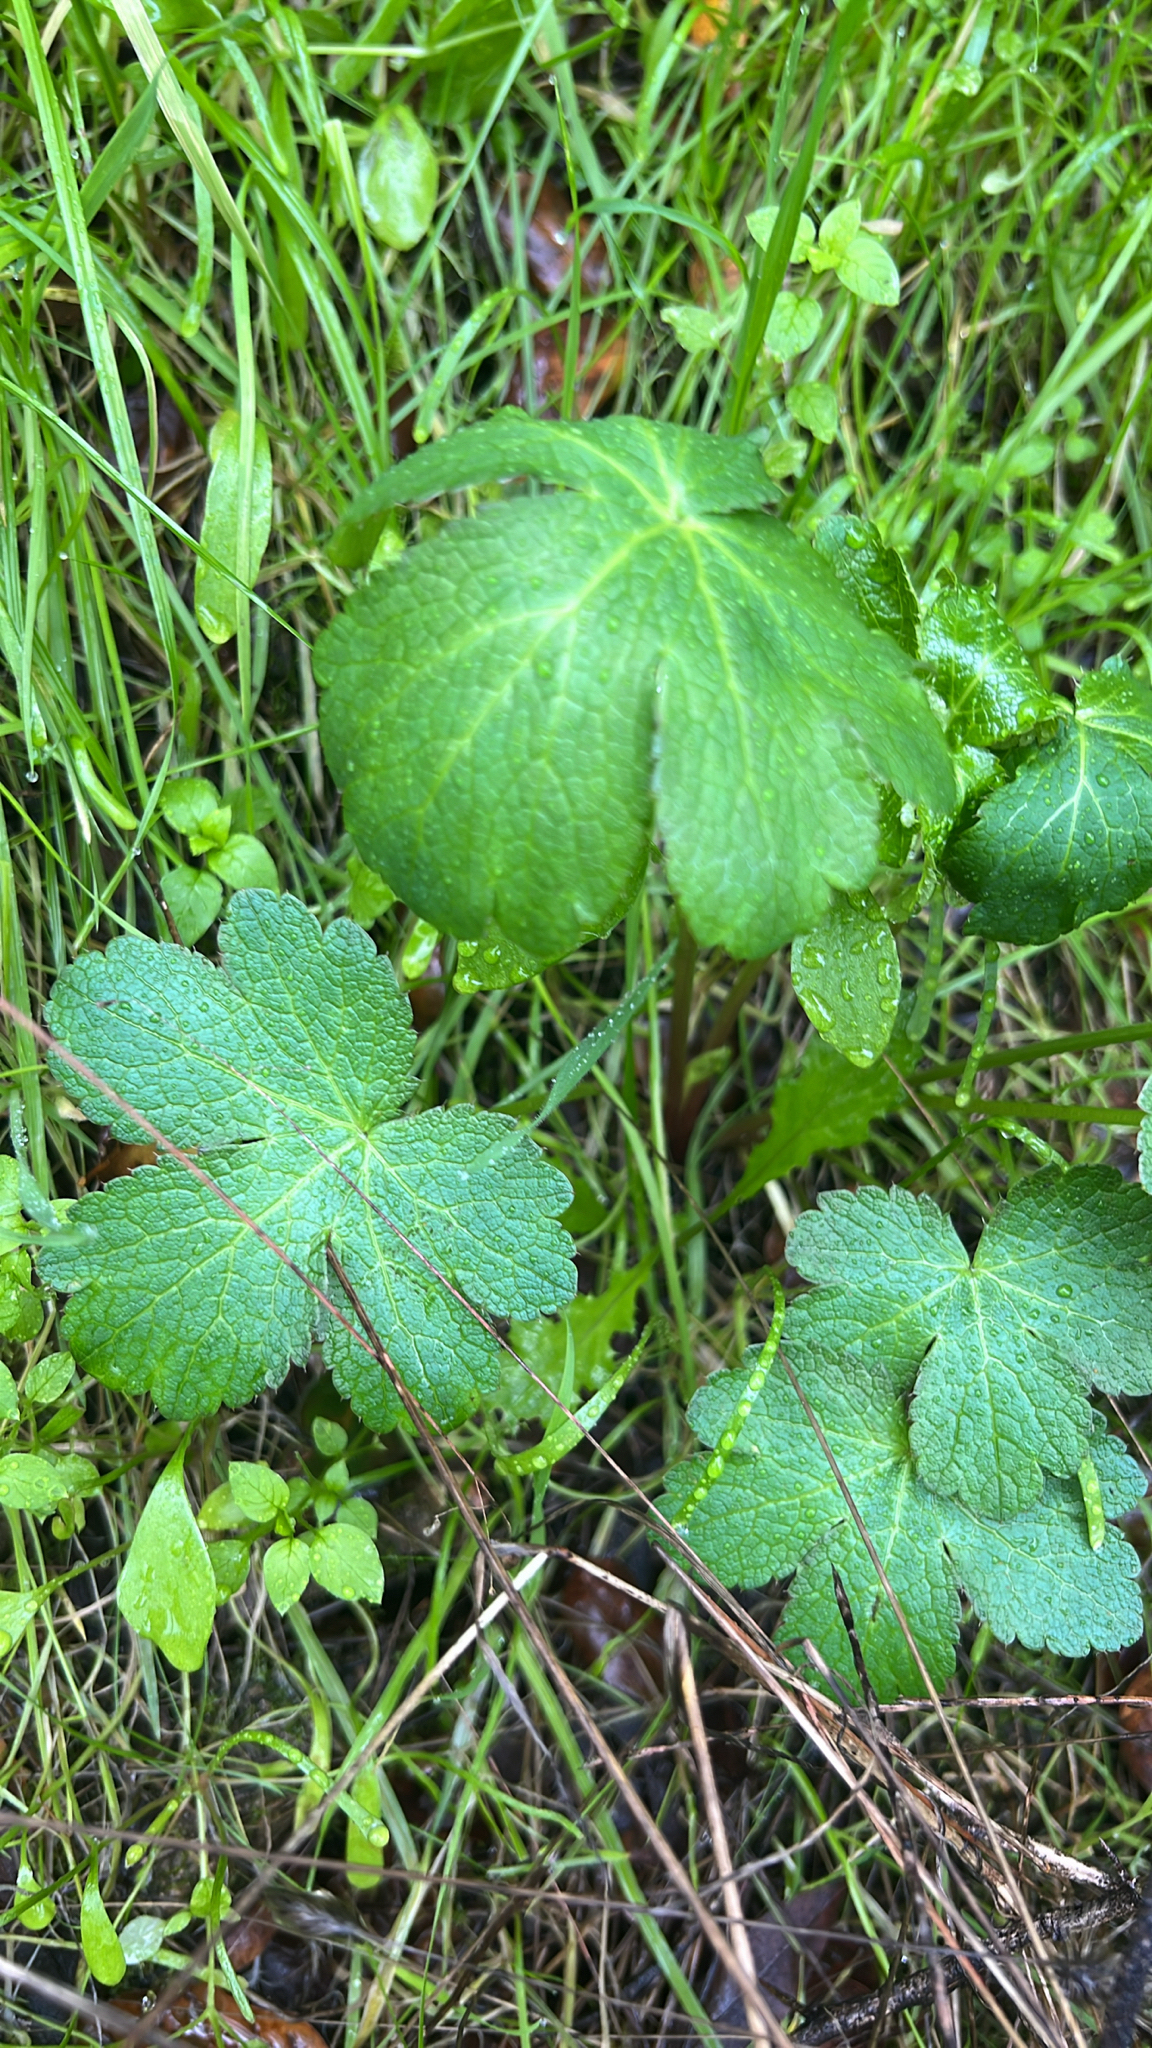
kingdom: Plantae
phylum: Tracheophyta
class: Magnoliopsida
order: Apiales
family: Apiaceae
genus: Sanicula
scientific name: Sanicula crassicaulis
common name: Western snakeroot
